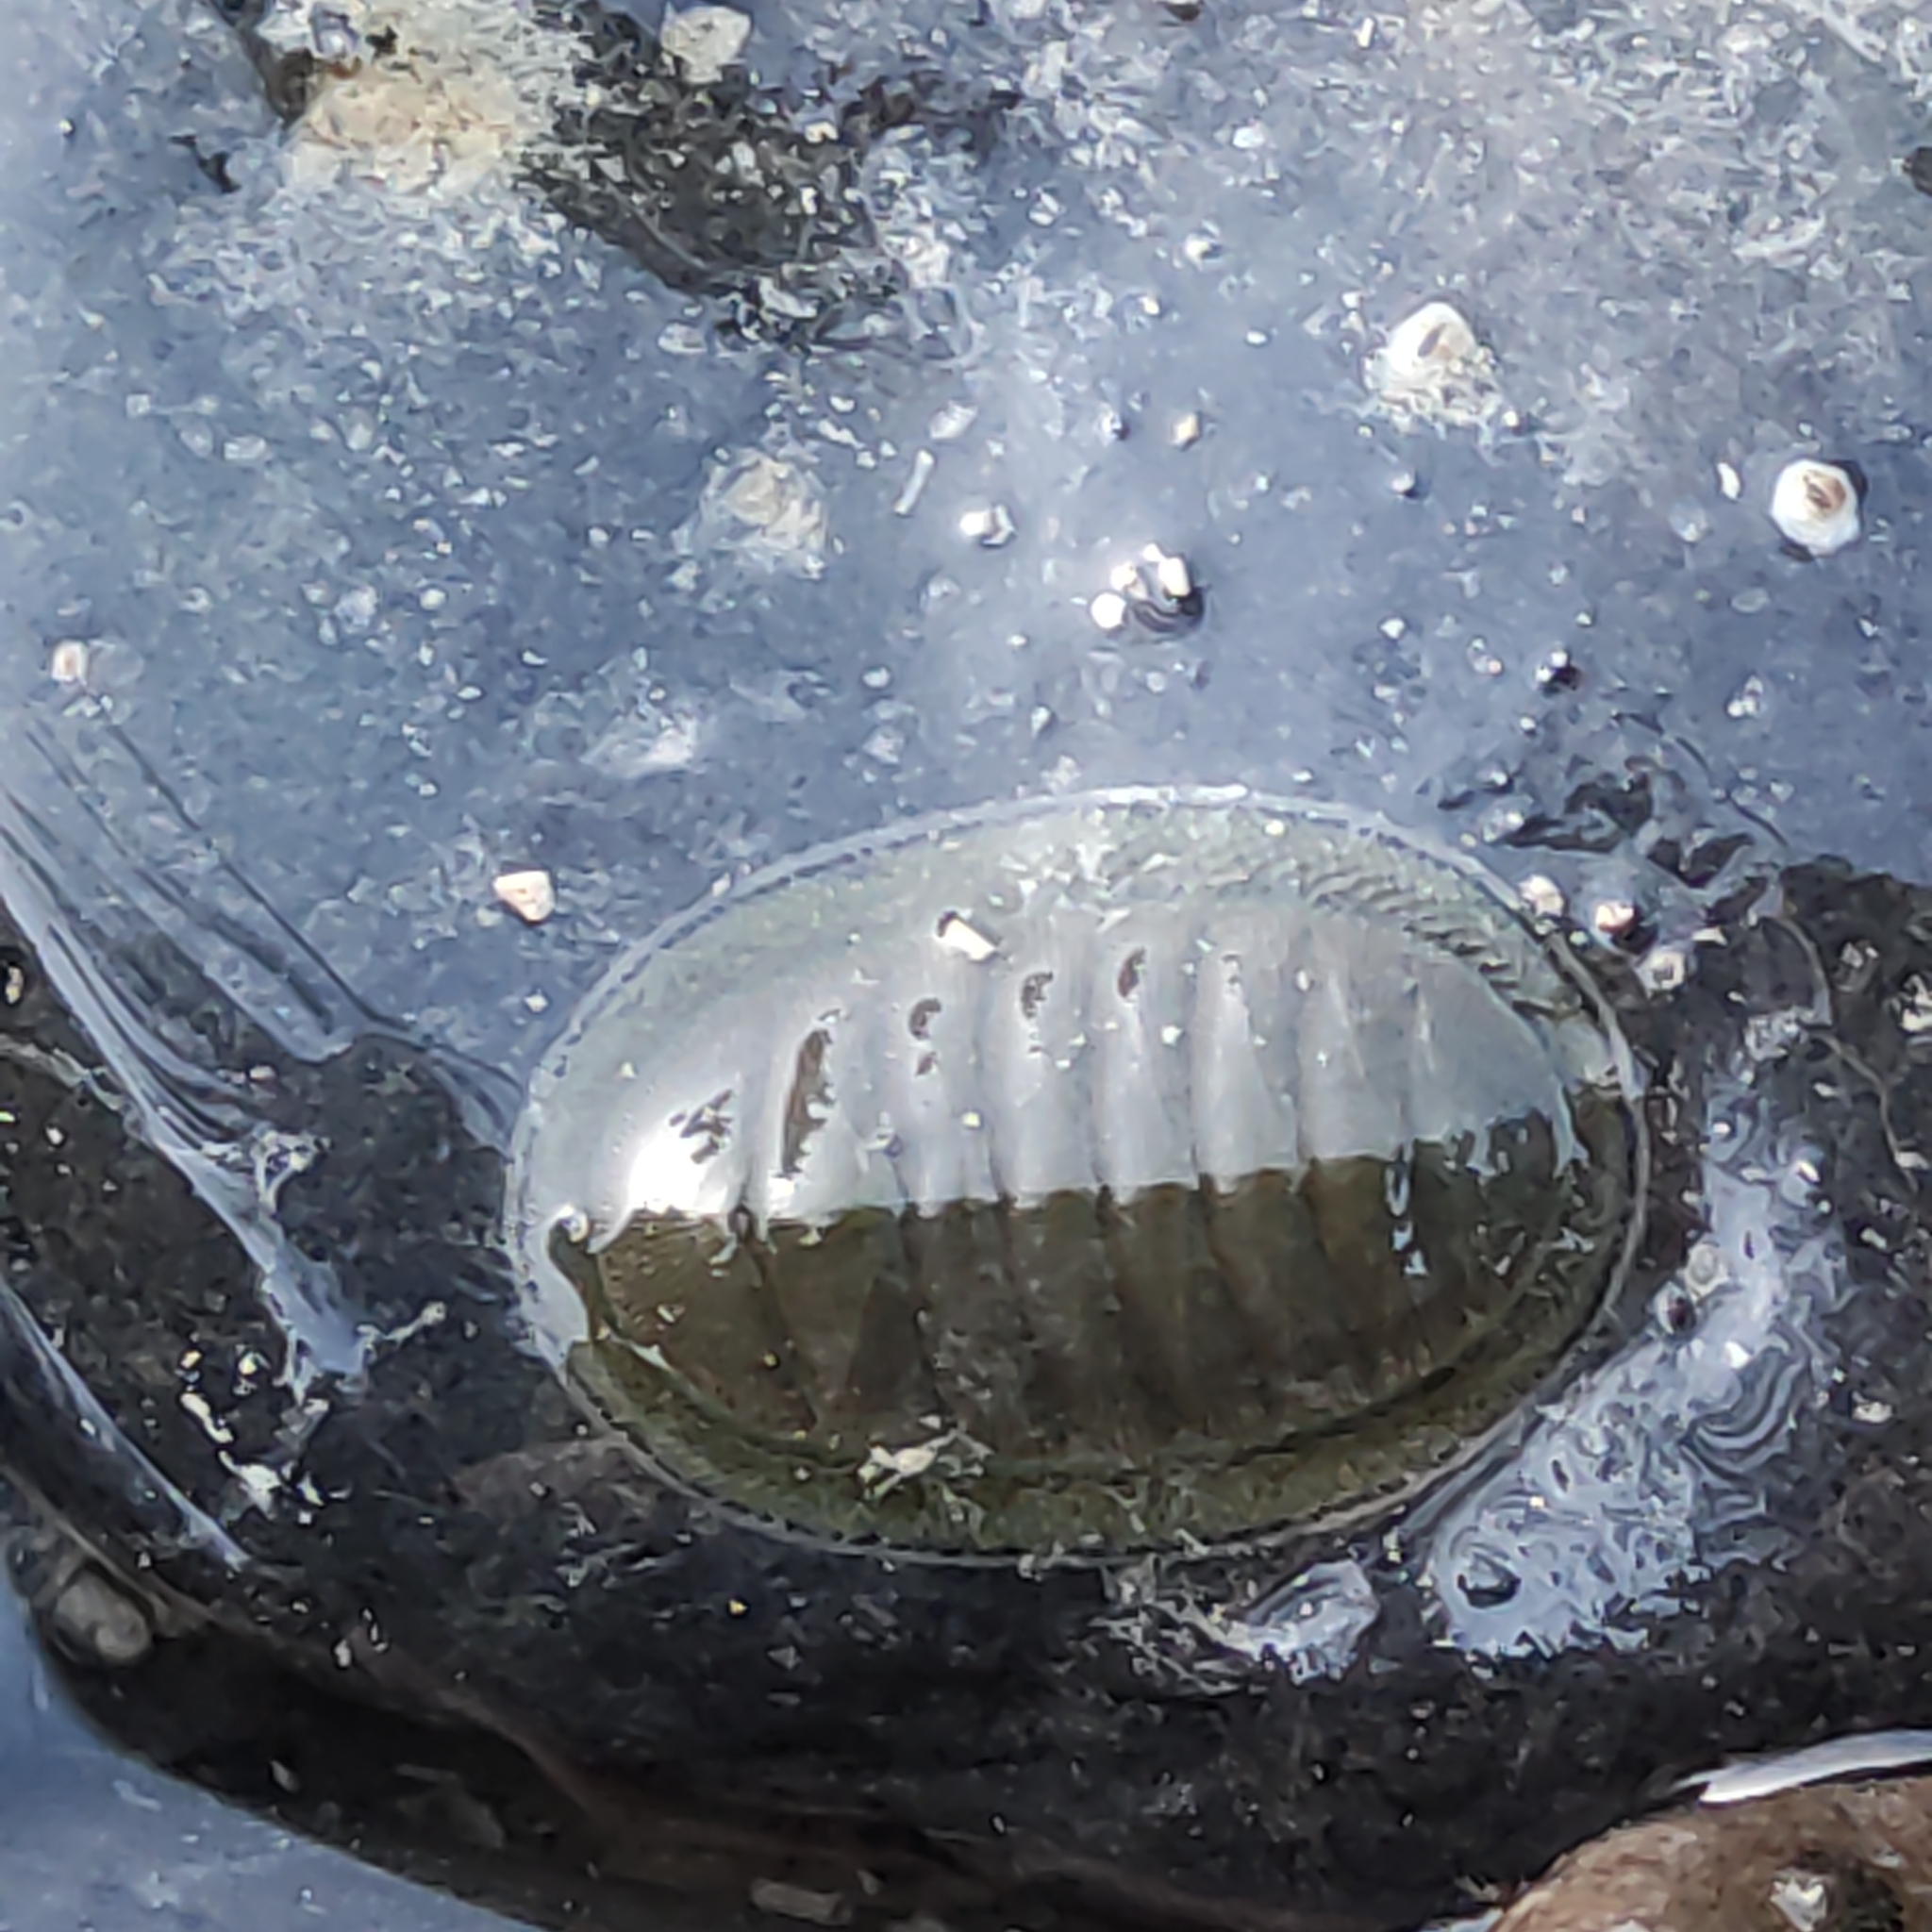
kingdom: Animalia
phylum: Mollusca
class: Polyplacophora
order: Chitonida
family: Chitonidae
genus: Chiton
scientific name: Chiton glaucus
